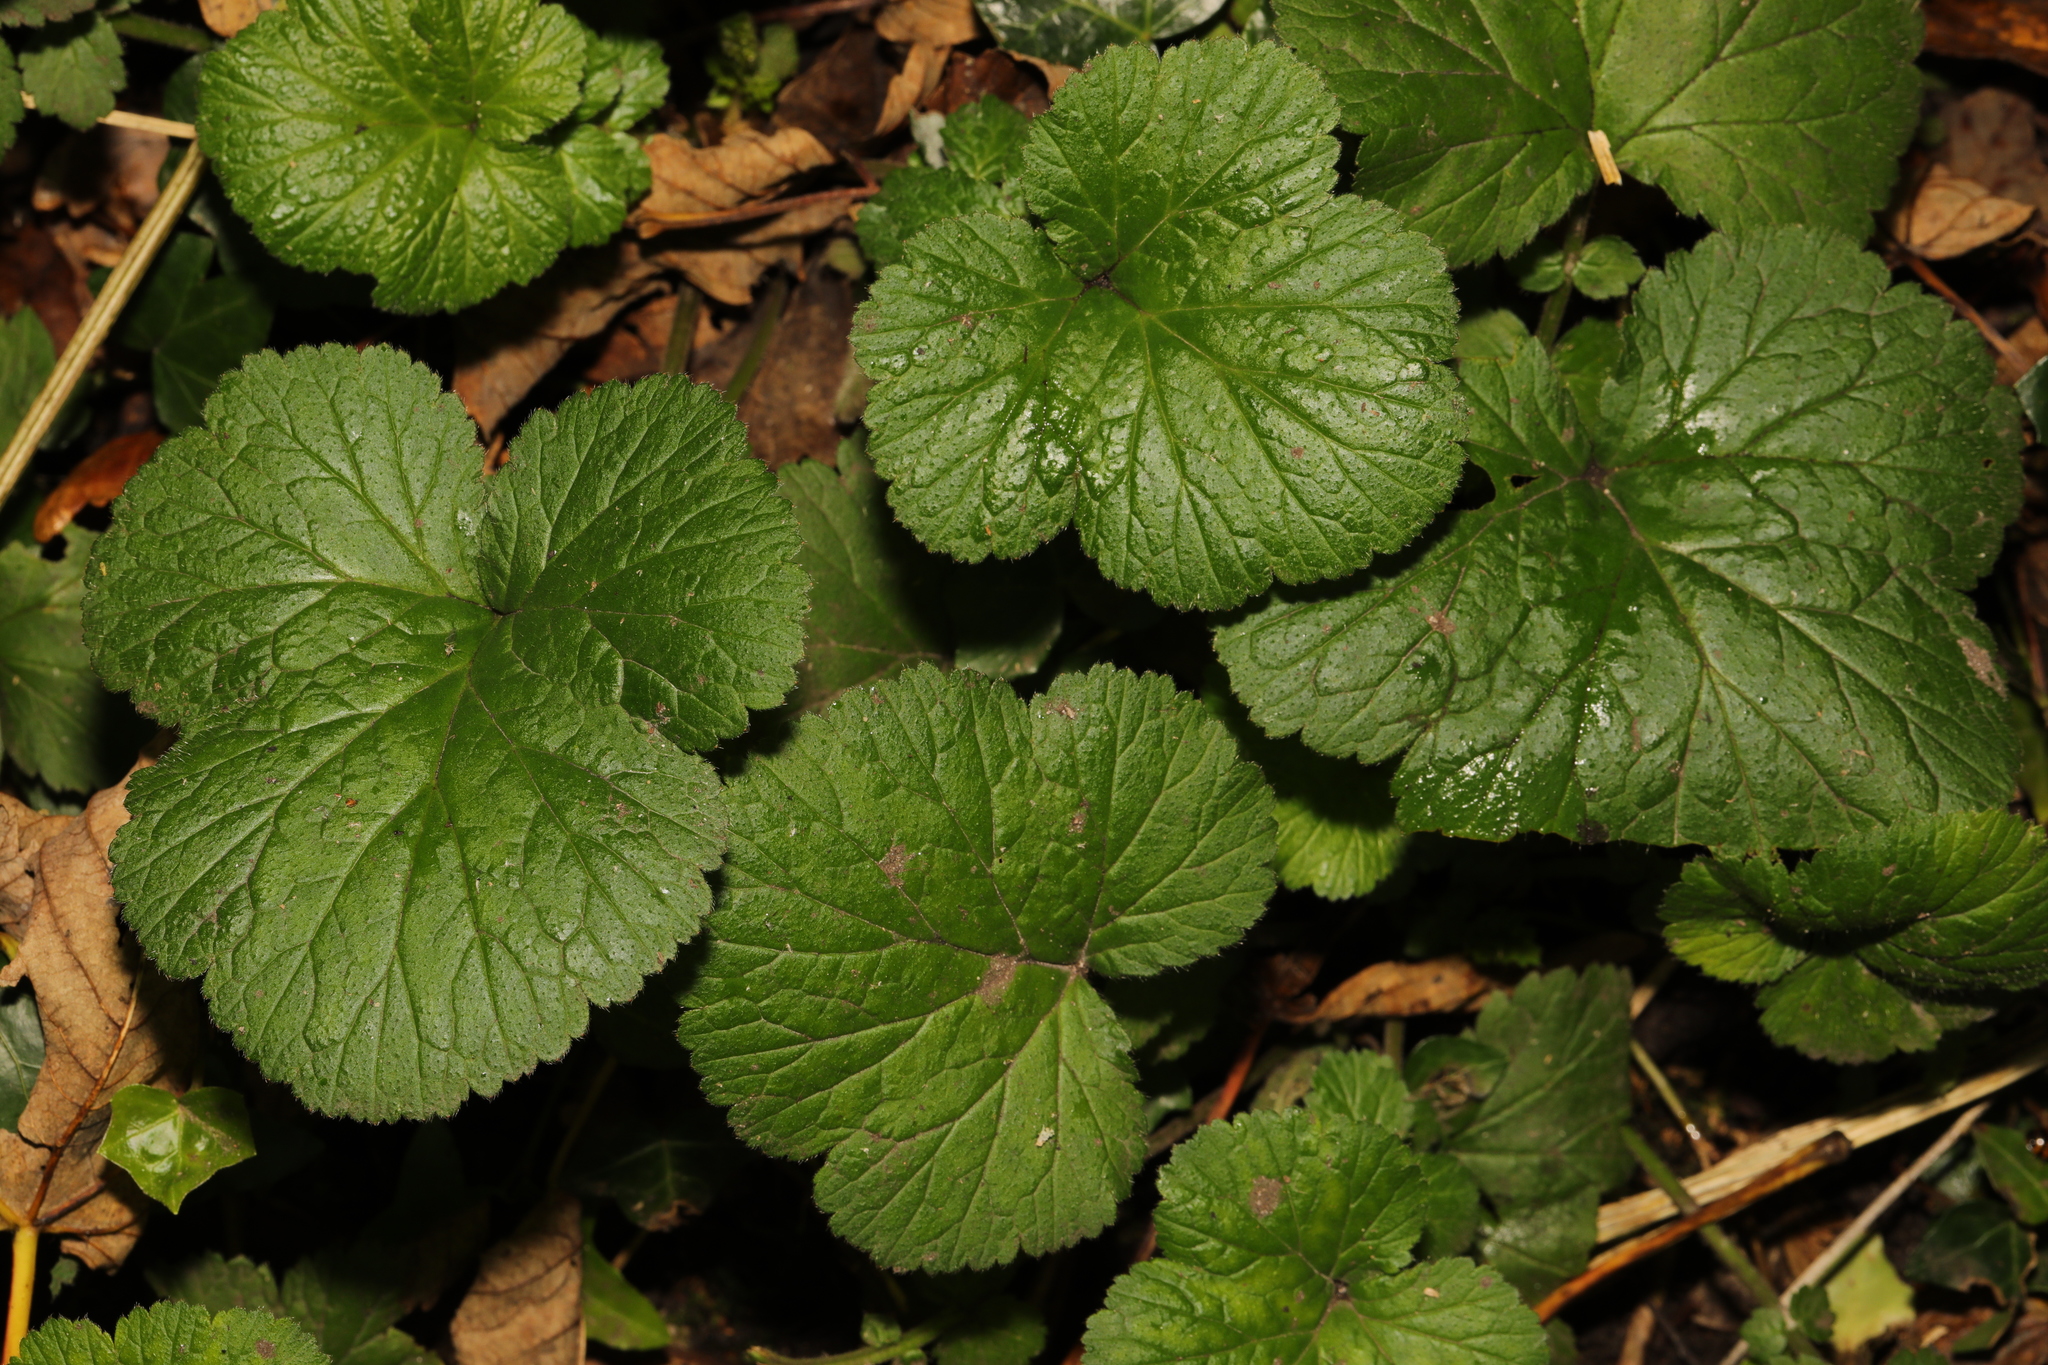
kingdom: Plantae
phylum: Tracheophyta
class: Magnoliopsida
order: Rosales
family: Rosaceae
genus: Geum
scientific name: Geum urbanum
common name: Wood avens
